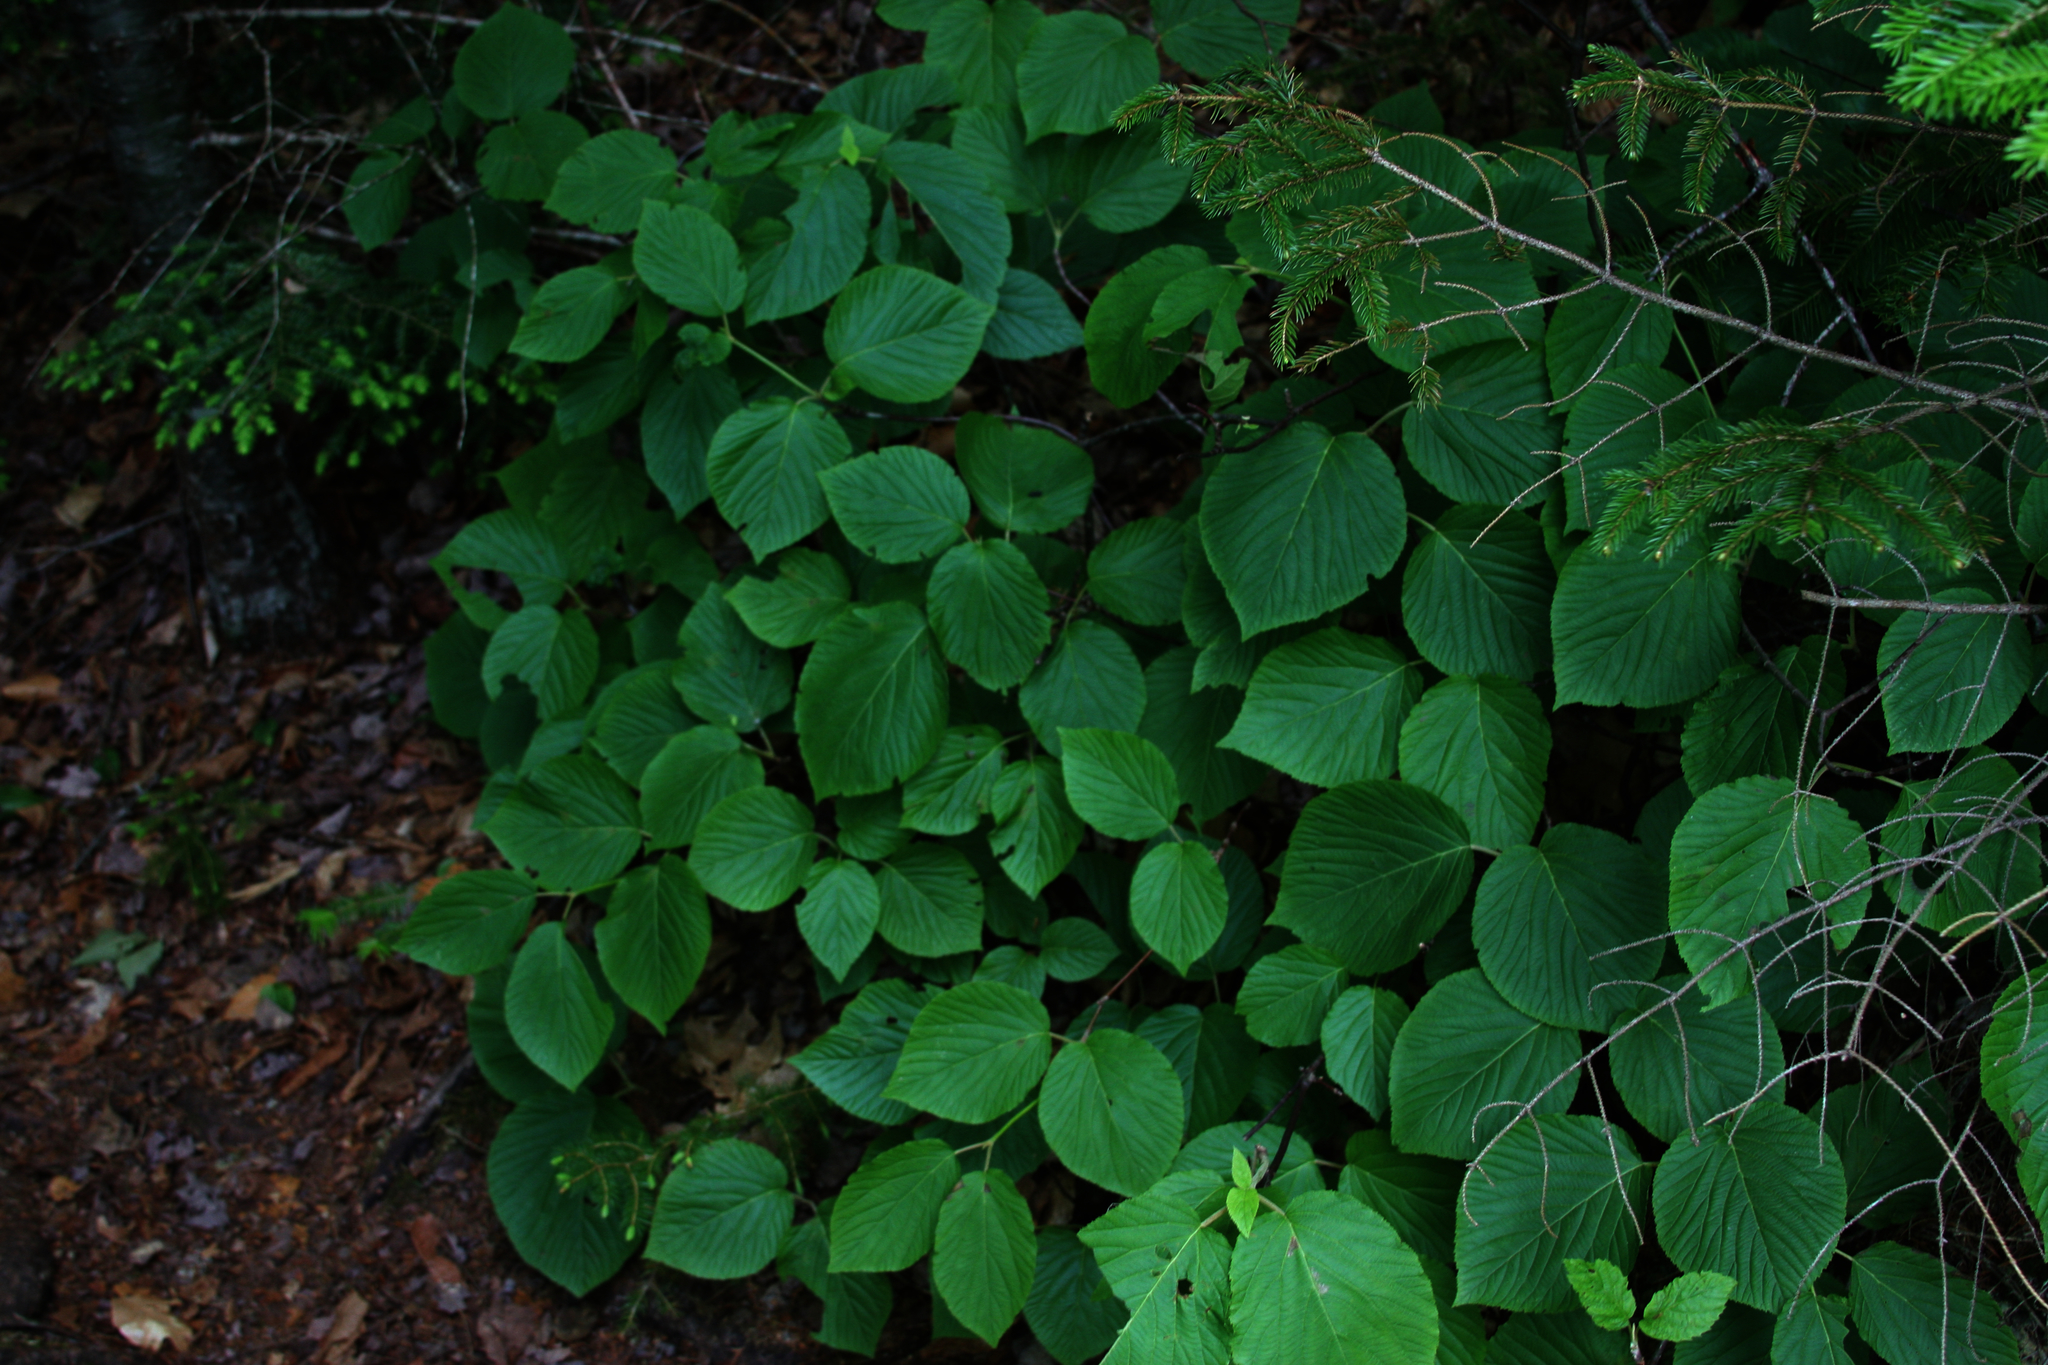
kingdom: Plantae
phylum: Tracheophyta
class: Magnoliopsida
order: Dipsacales
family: Viburnaceae
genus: Viburnum
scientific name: Viburnum lantanoides
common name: Hobblebush
